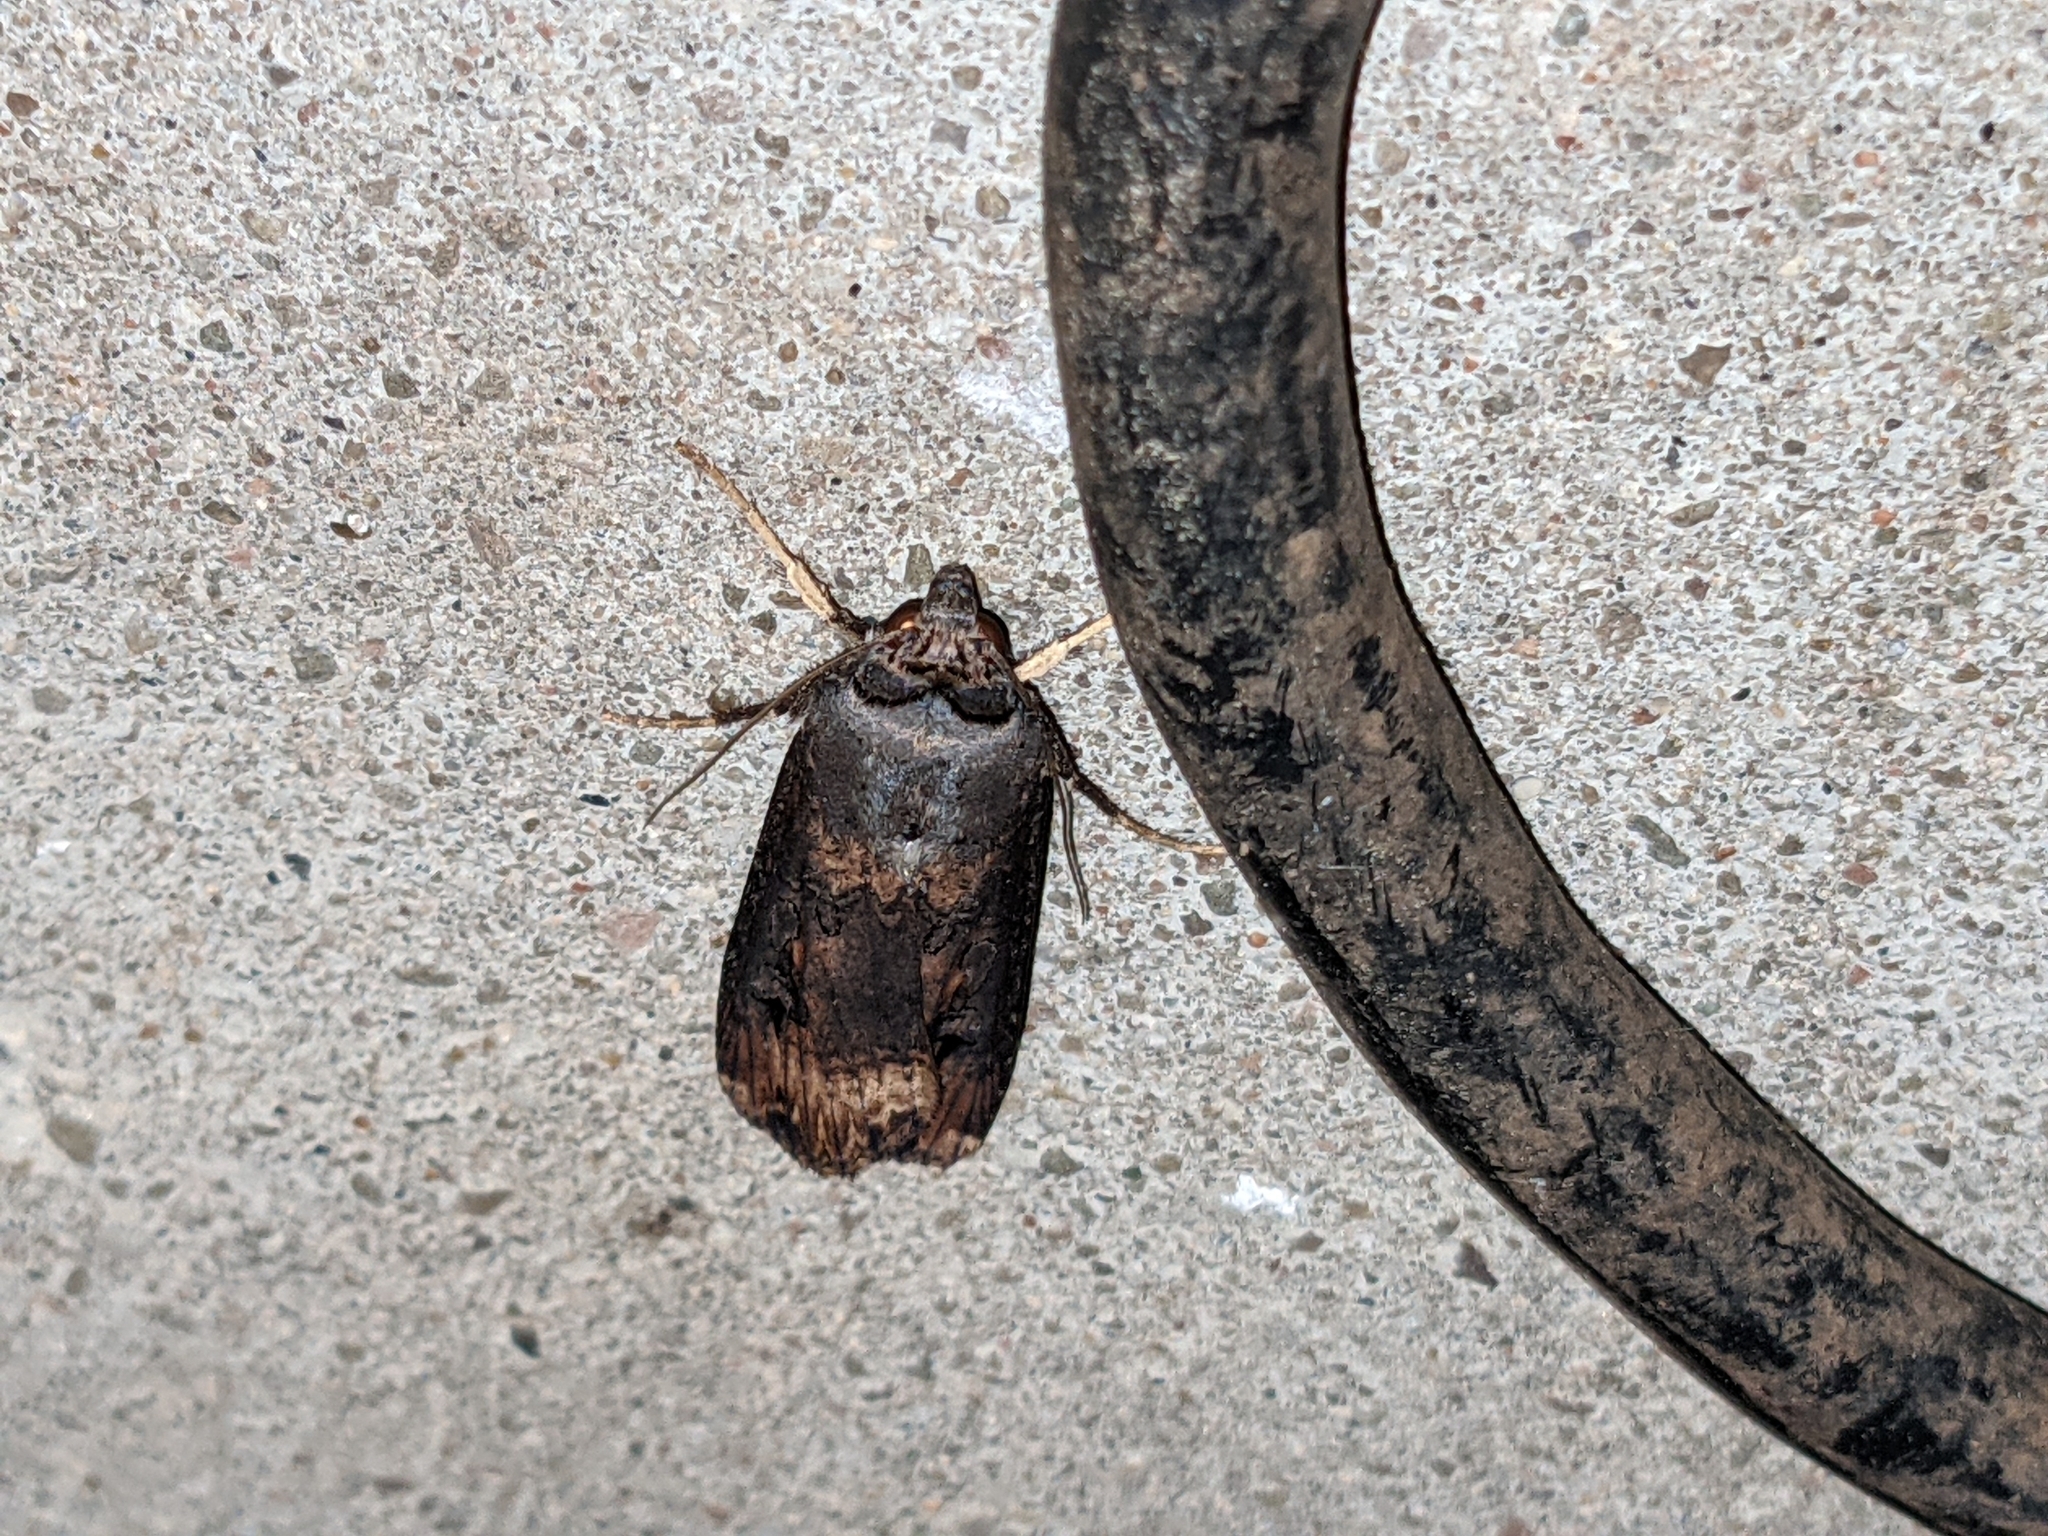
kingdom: Animalia
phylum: Arthropoda
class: Insecta
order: Lepidoptera
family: Noctuidae
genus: Agrotis
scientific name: Agrotis ipsilon
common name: Dark sword-grass
